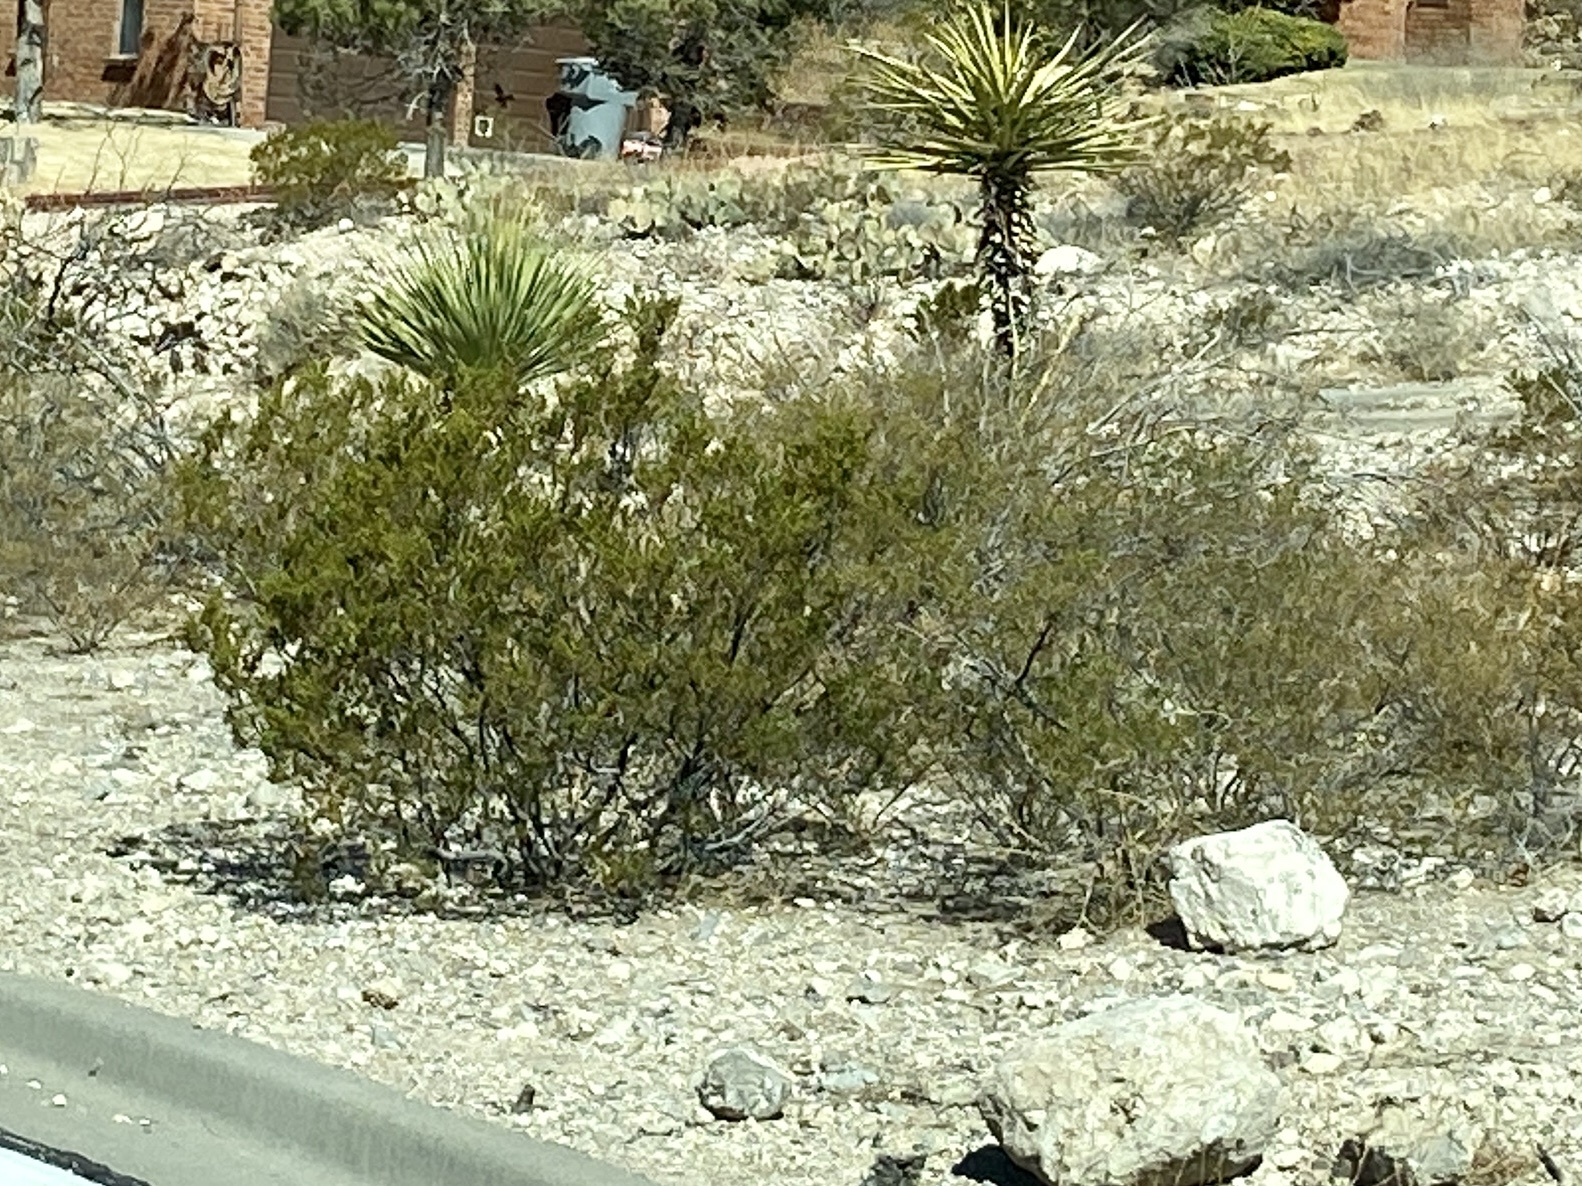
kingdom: Plantae
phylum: Tracheophyta
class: Magnoliopsida
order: Zygophyllales
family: Zygophyllaceae
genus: Larrea
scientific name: Larrea tridentata
